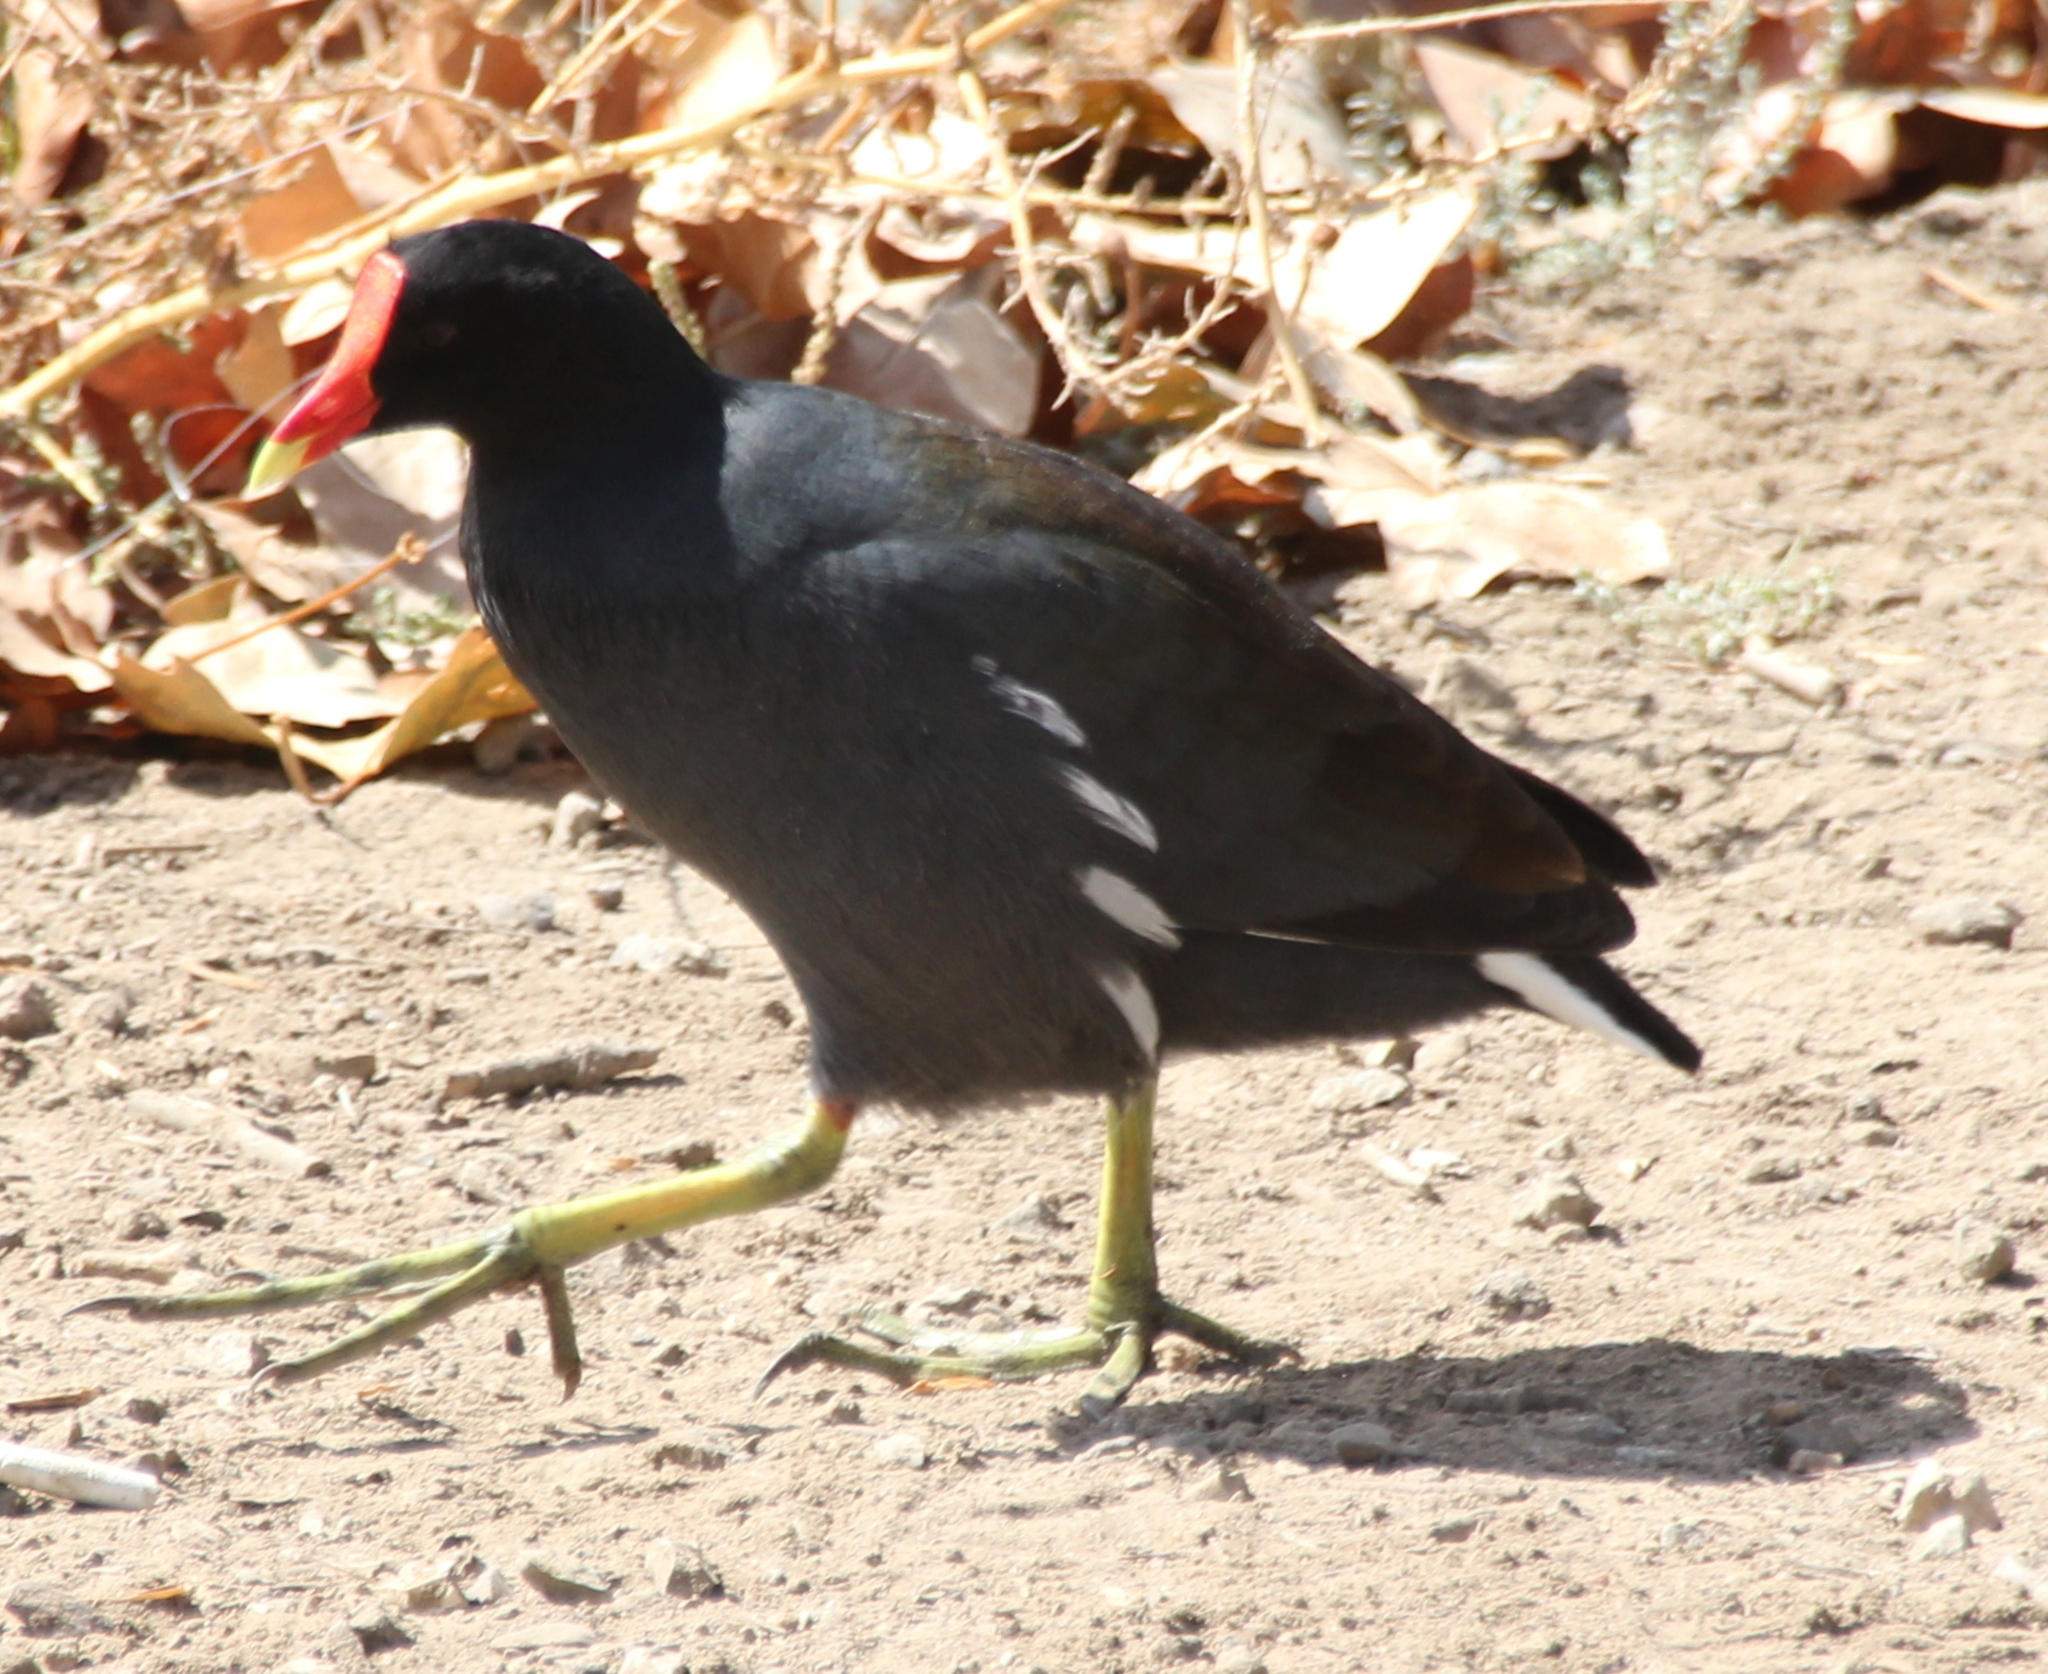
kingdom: Animalia
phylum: Chordata
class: Aves
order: Gruiformes
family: Rallidae
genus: Gallinula
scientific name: Gallinula chloropus
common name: Common moorhen
